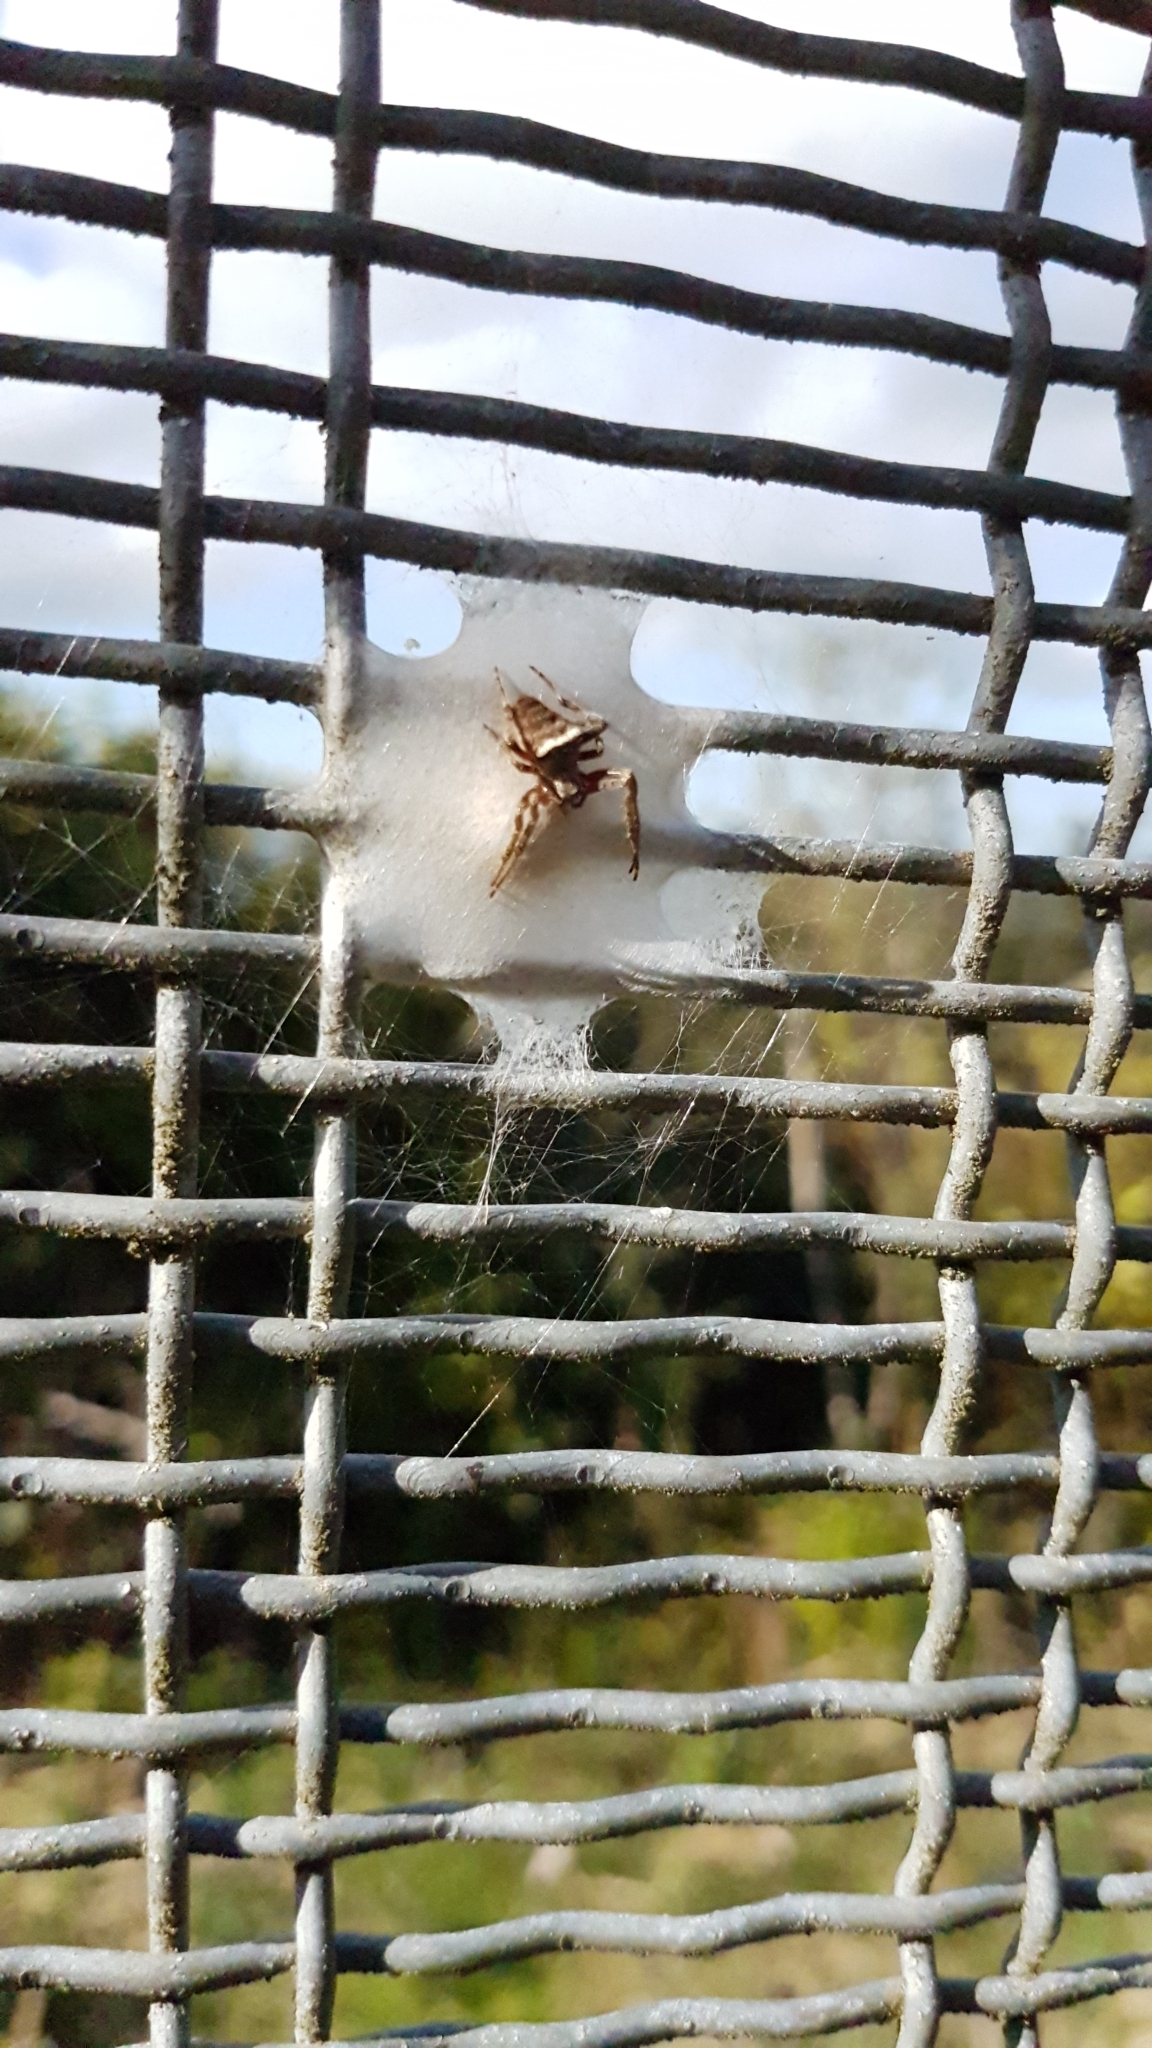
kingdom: Animalia
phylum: Arthropoda
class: Arachnida
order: Araneae
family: Araneidae
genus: Zealaranea
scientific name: Zealaranea crassa
